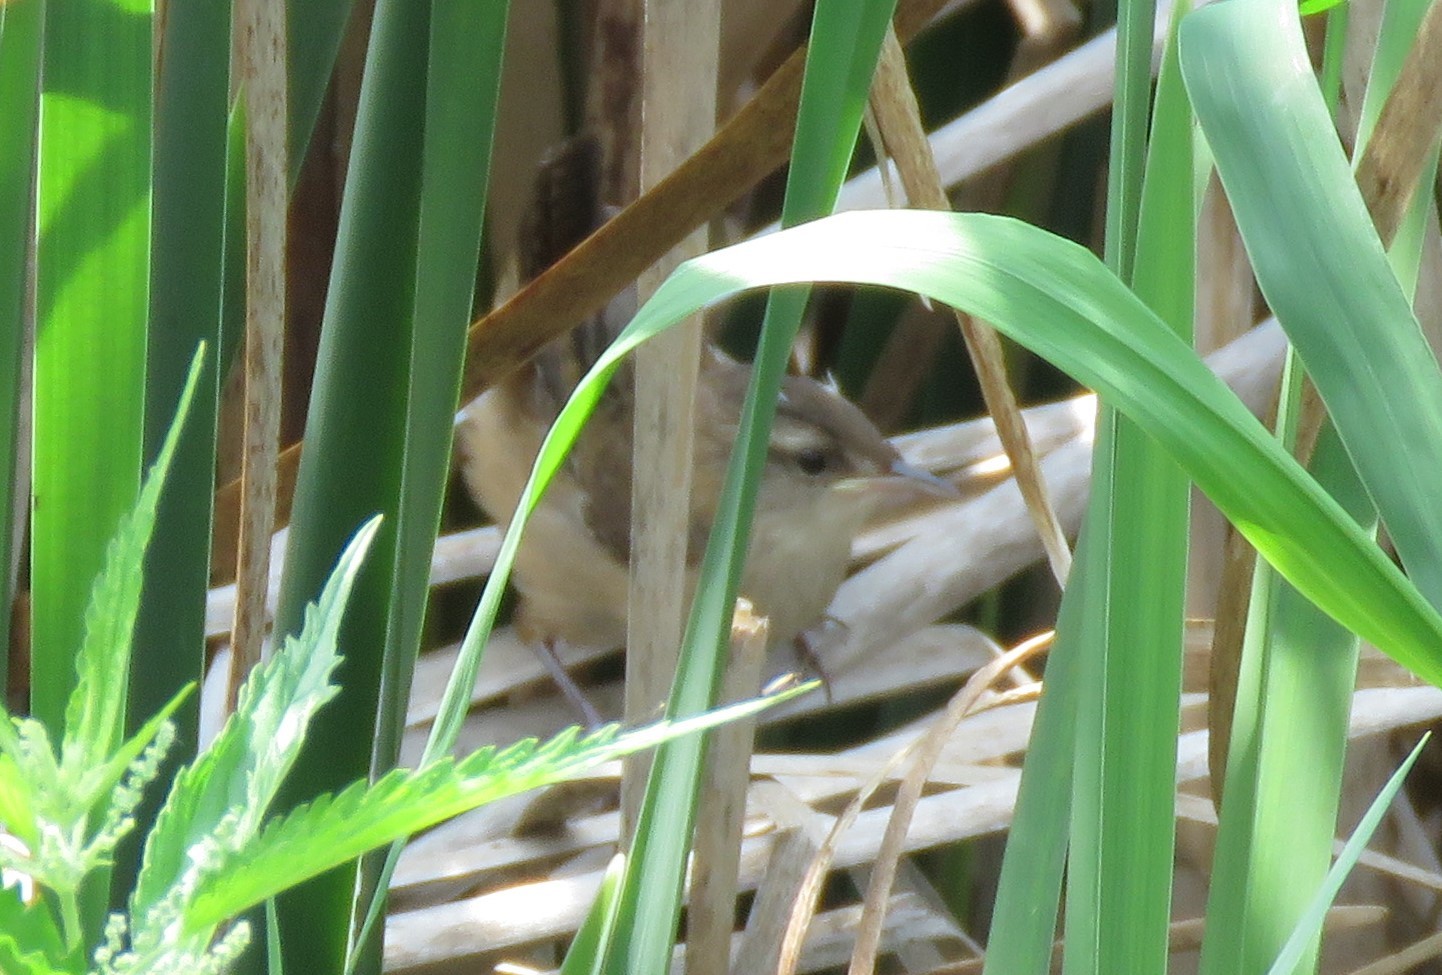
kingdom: Animalia
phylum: Chordata
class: Aves
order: Passeriformes
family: Troglodytidae
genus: Cistothorus
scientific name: Cistothorus palustris
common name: Marsh wren
